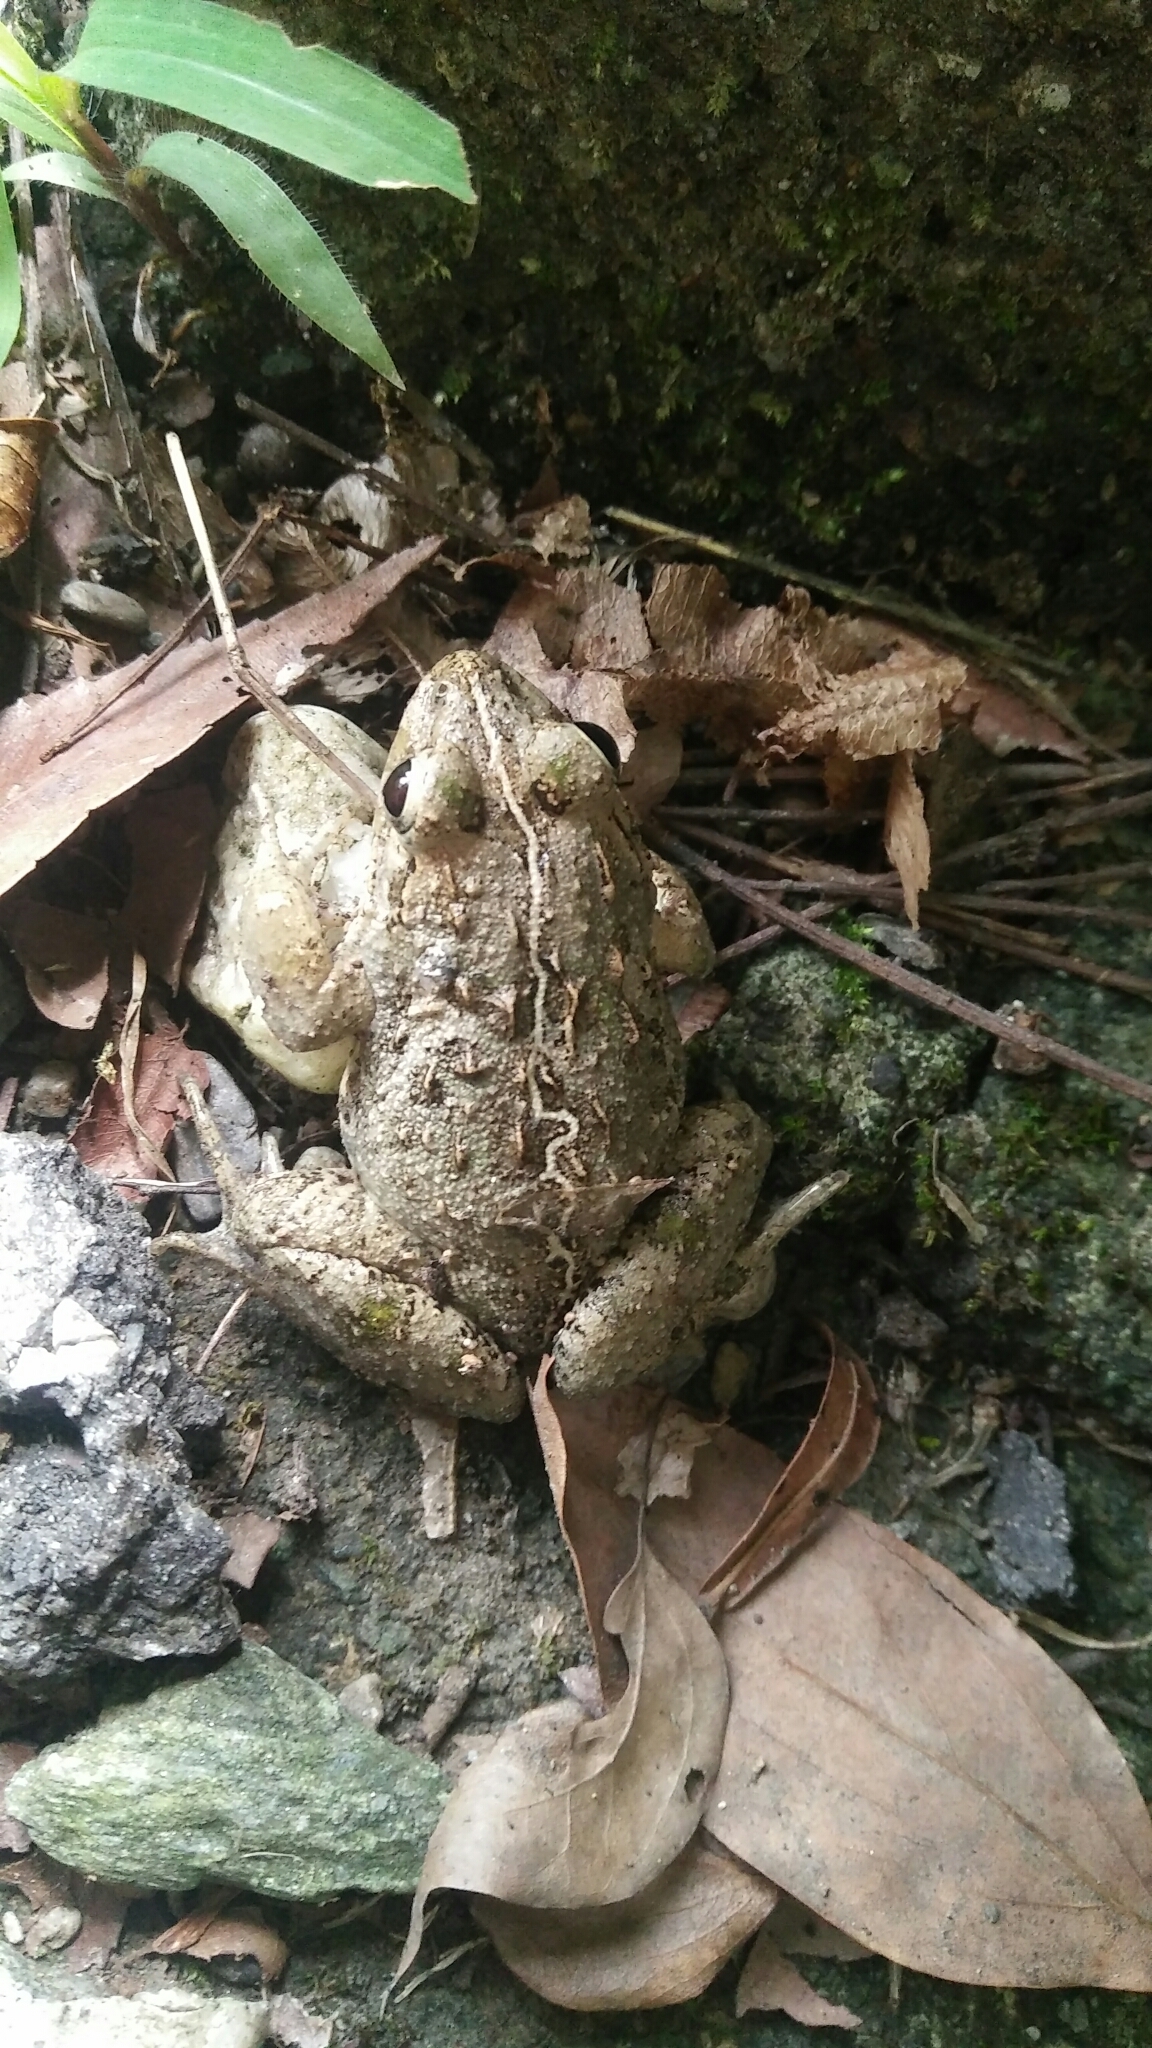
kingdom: Animalia
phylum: Chordata
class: Amphibia
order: Anura
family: Dicroglossidae
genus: Fejervarya
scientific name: Fejervarya limnocharis
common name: Asian grass frog/common pond frog/field frog/grass frog/indian rice frog
